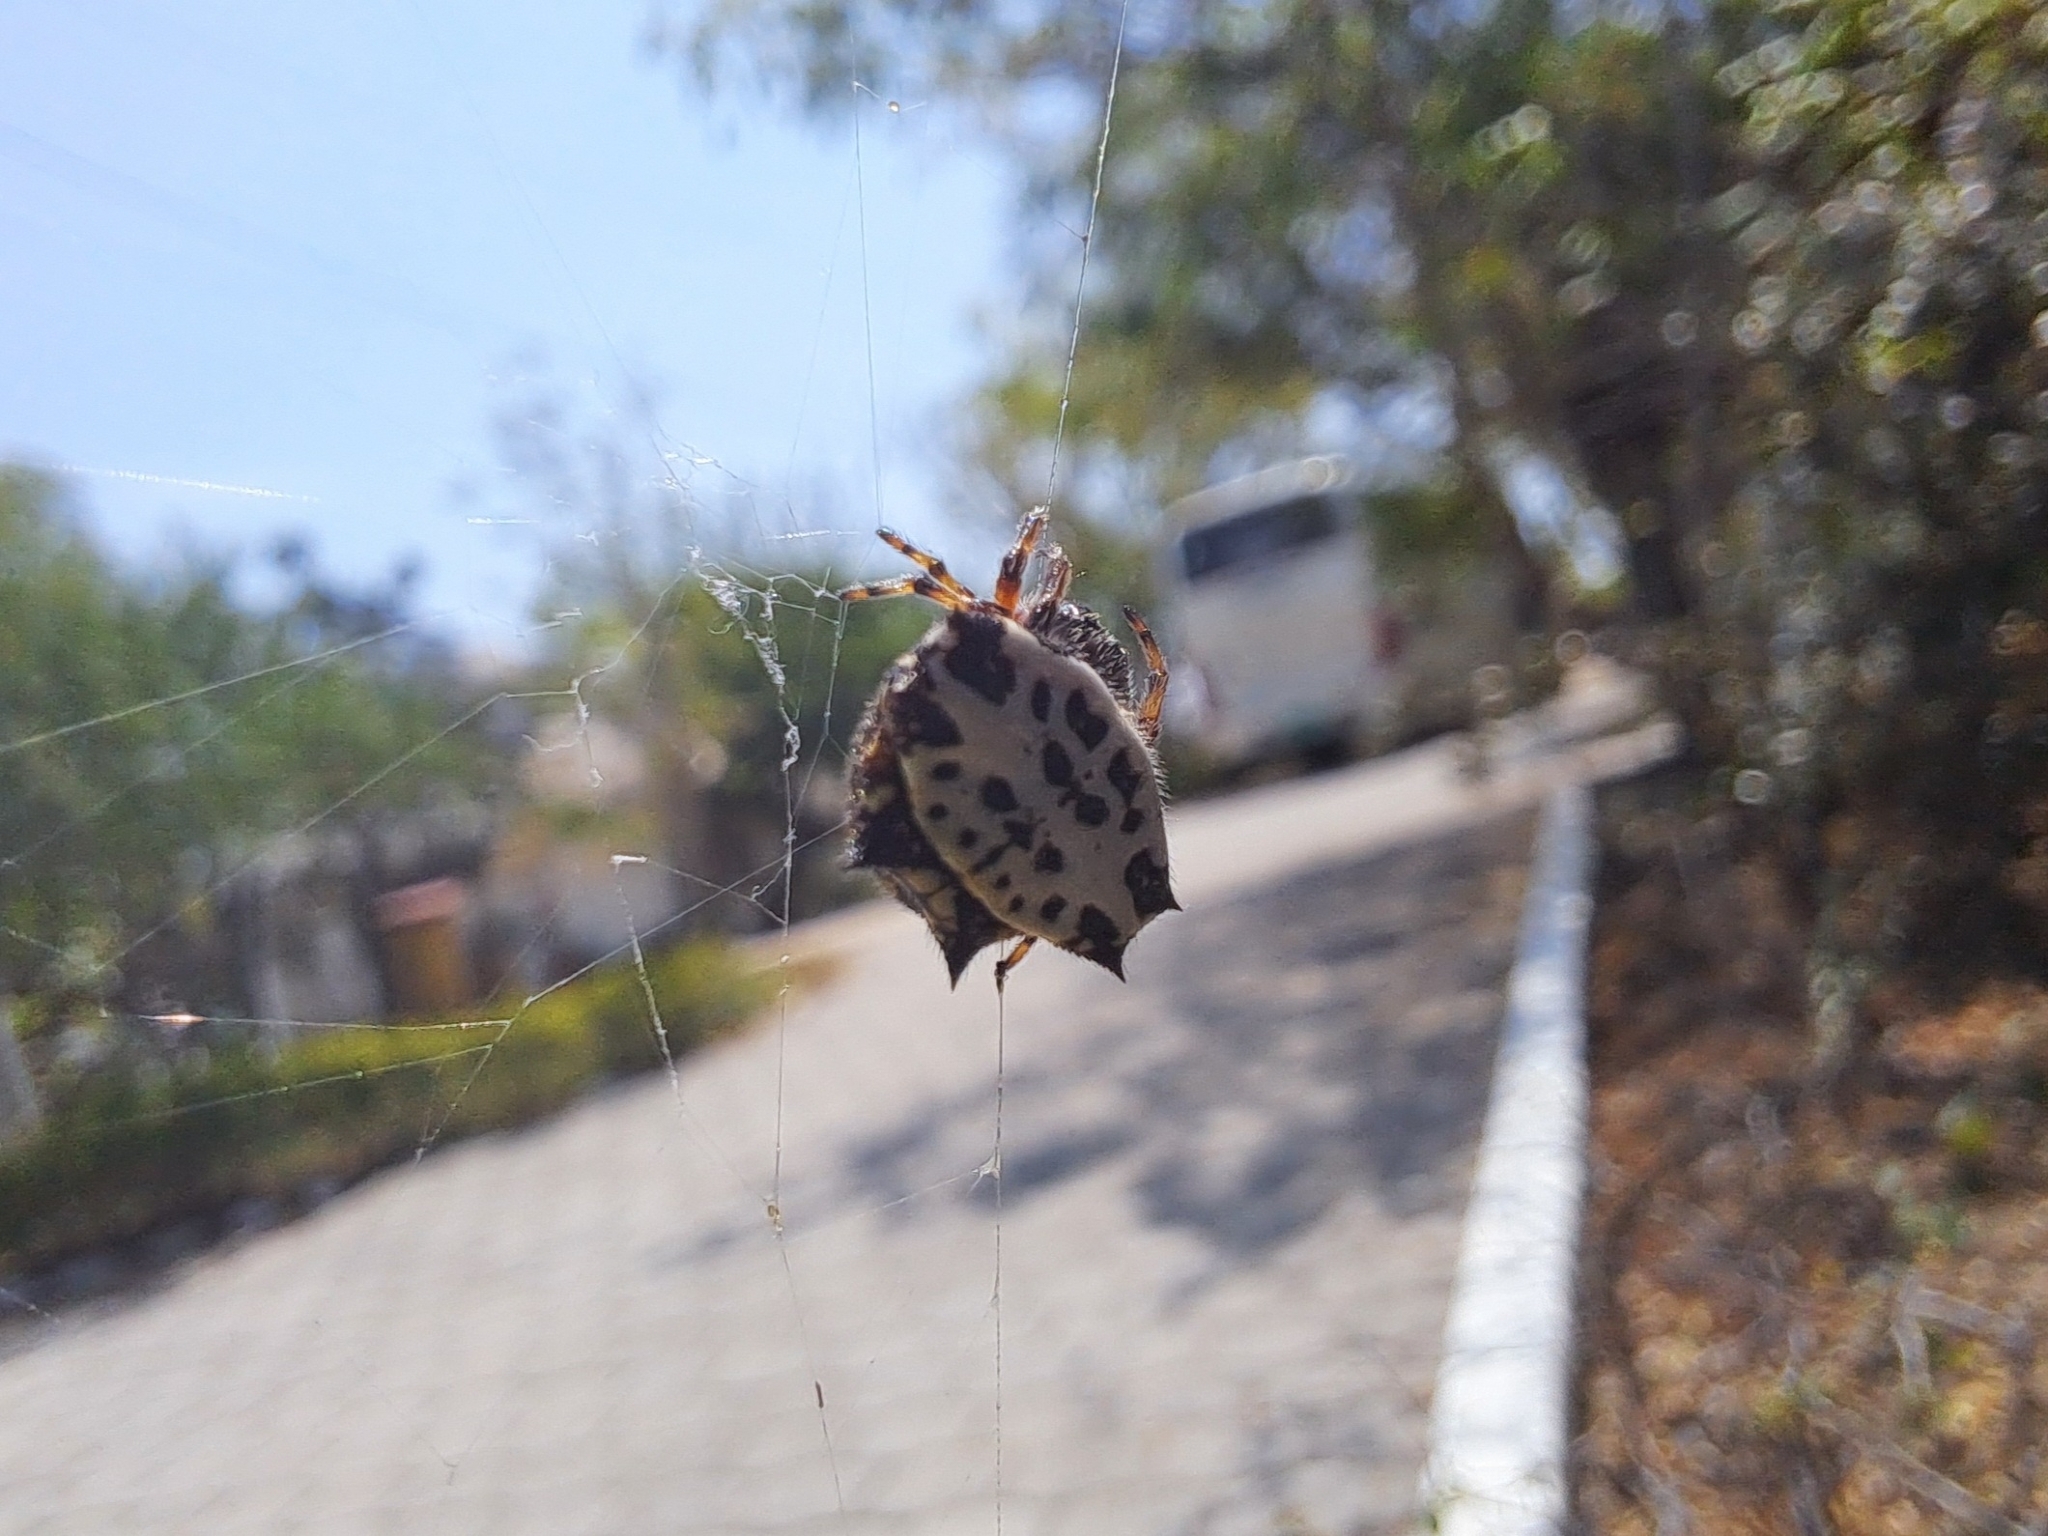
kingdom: Animalia
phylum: Arthropoda
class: Arachnida
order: Araneae
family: Araneidae
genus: Gasteracantha
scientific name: Gasteracantha cancriformis
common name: Orb weavers
